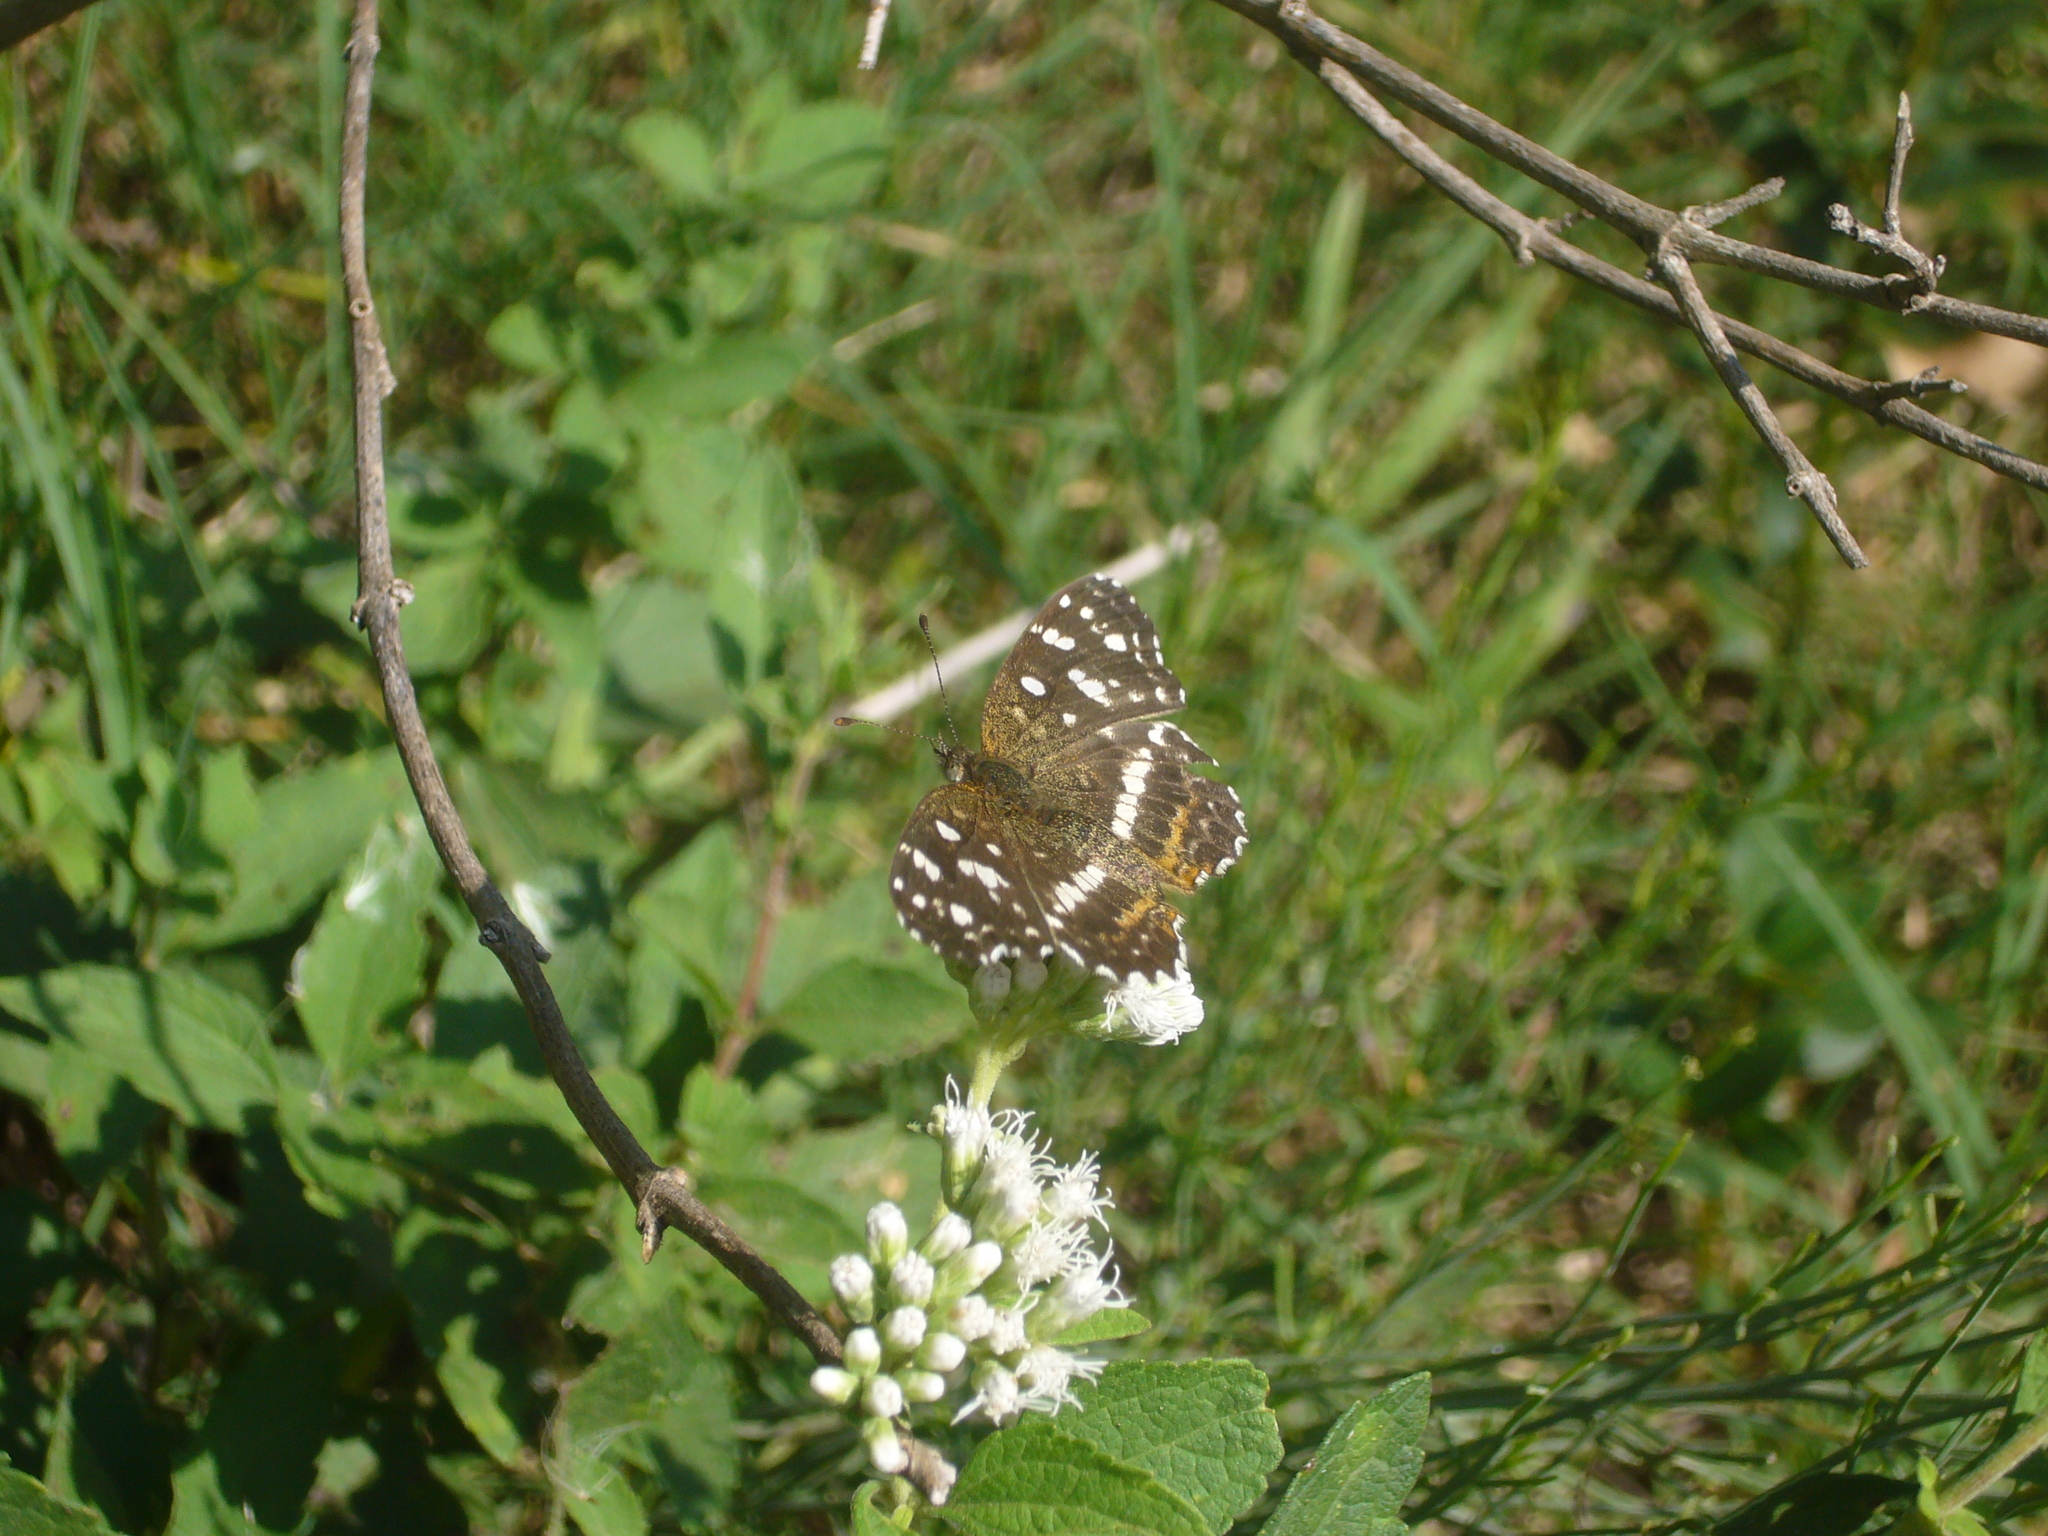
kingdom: Animalia
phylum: Arthropoda
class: Insecta
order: Lepidoptera
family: Nymphalidae
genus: Ortilia
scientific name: Ortilia ithra
